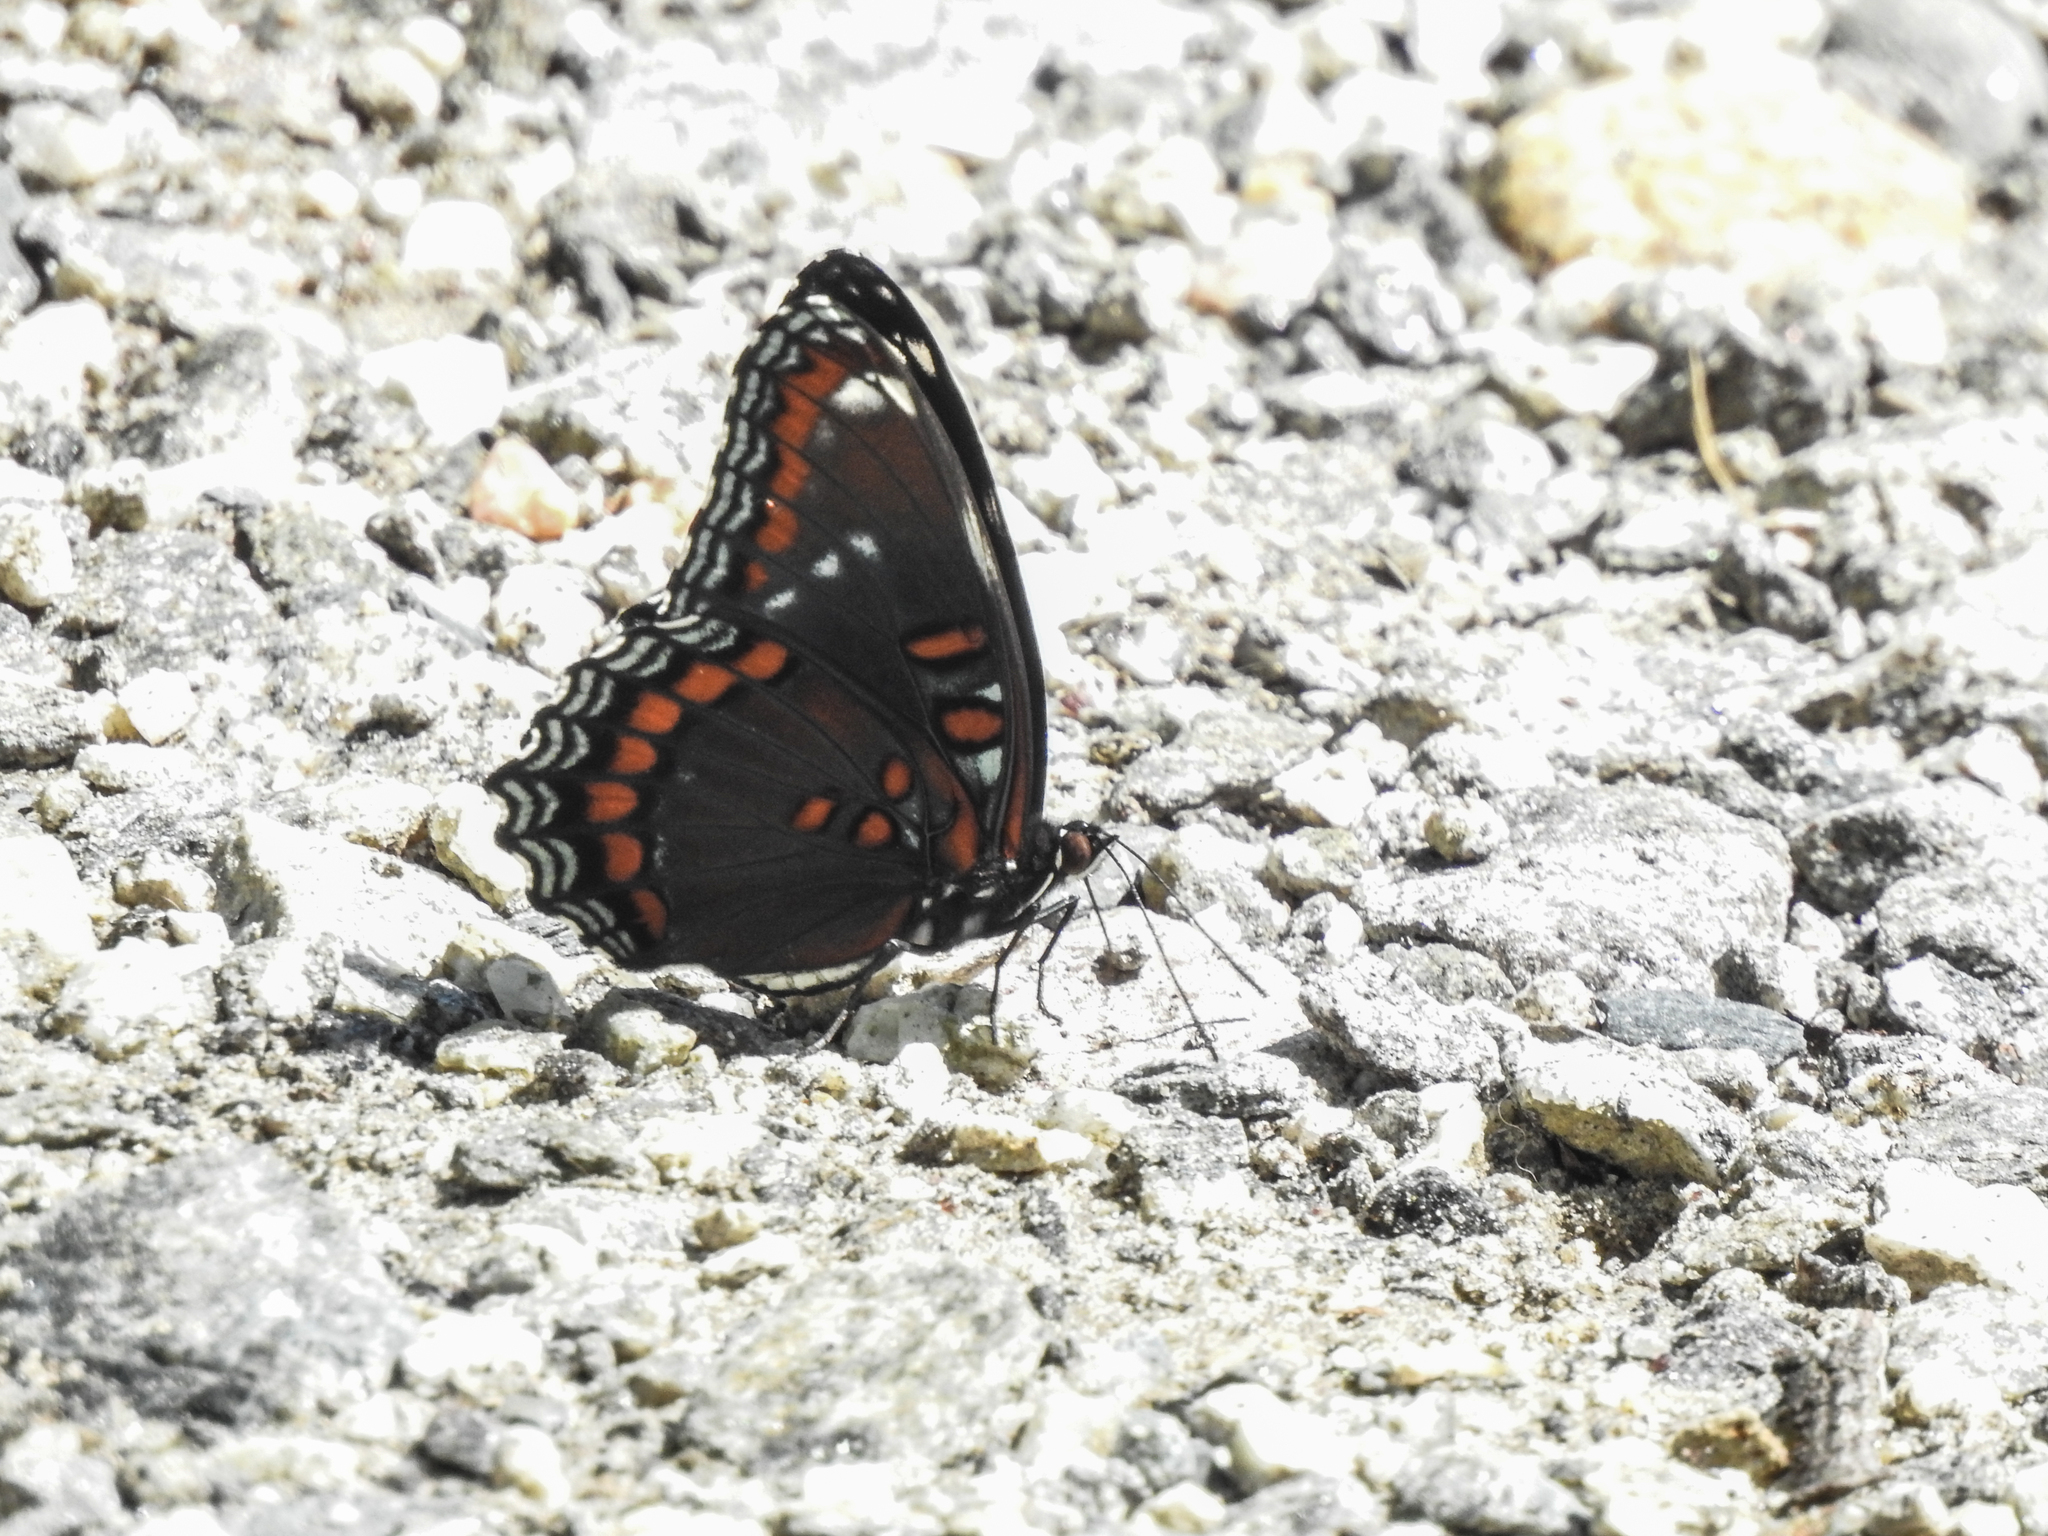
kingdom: Animalia
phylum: Arthropoda
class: Insecta
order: Lepidoptera
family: Nymphalidae
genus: Limenitis
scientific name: Limenitis arthemis
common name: Red-spotted admiral
